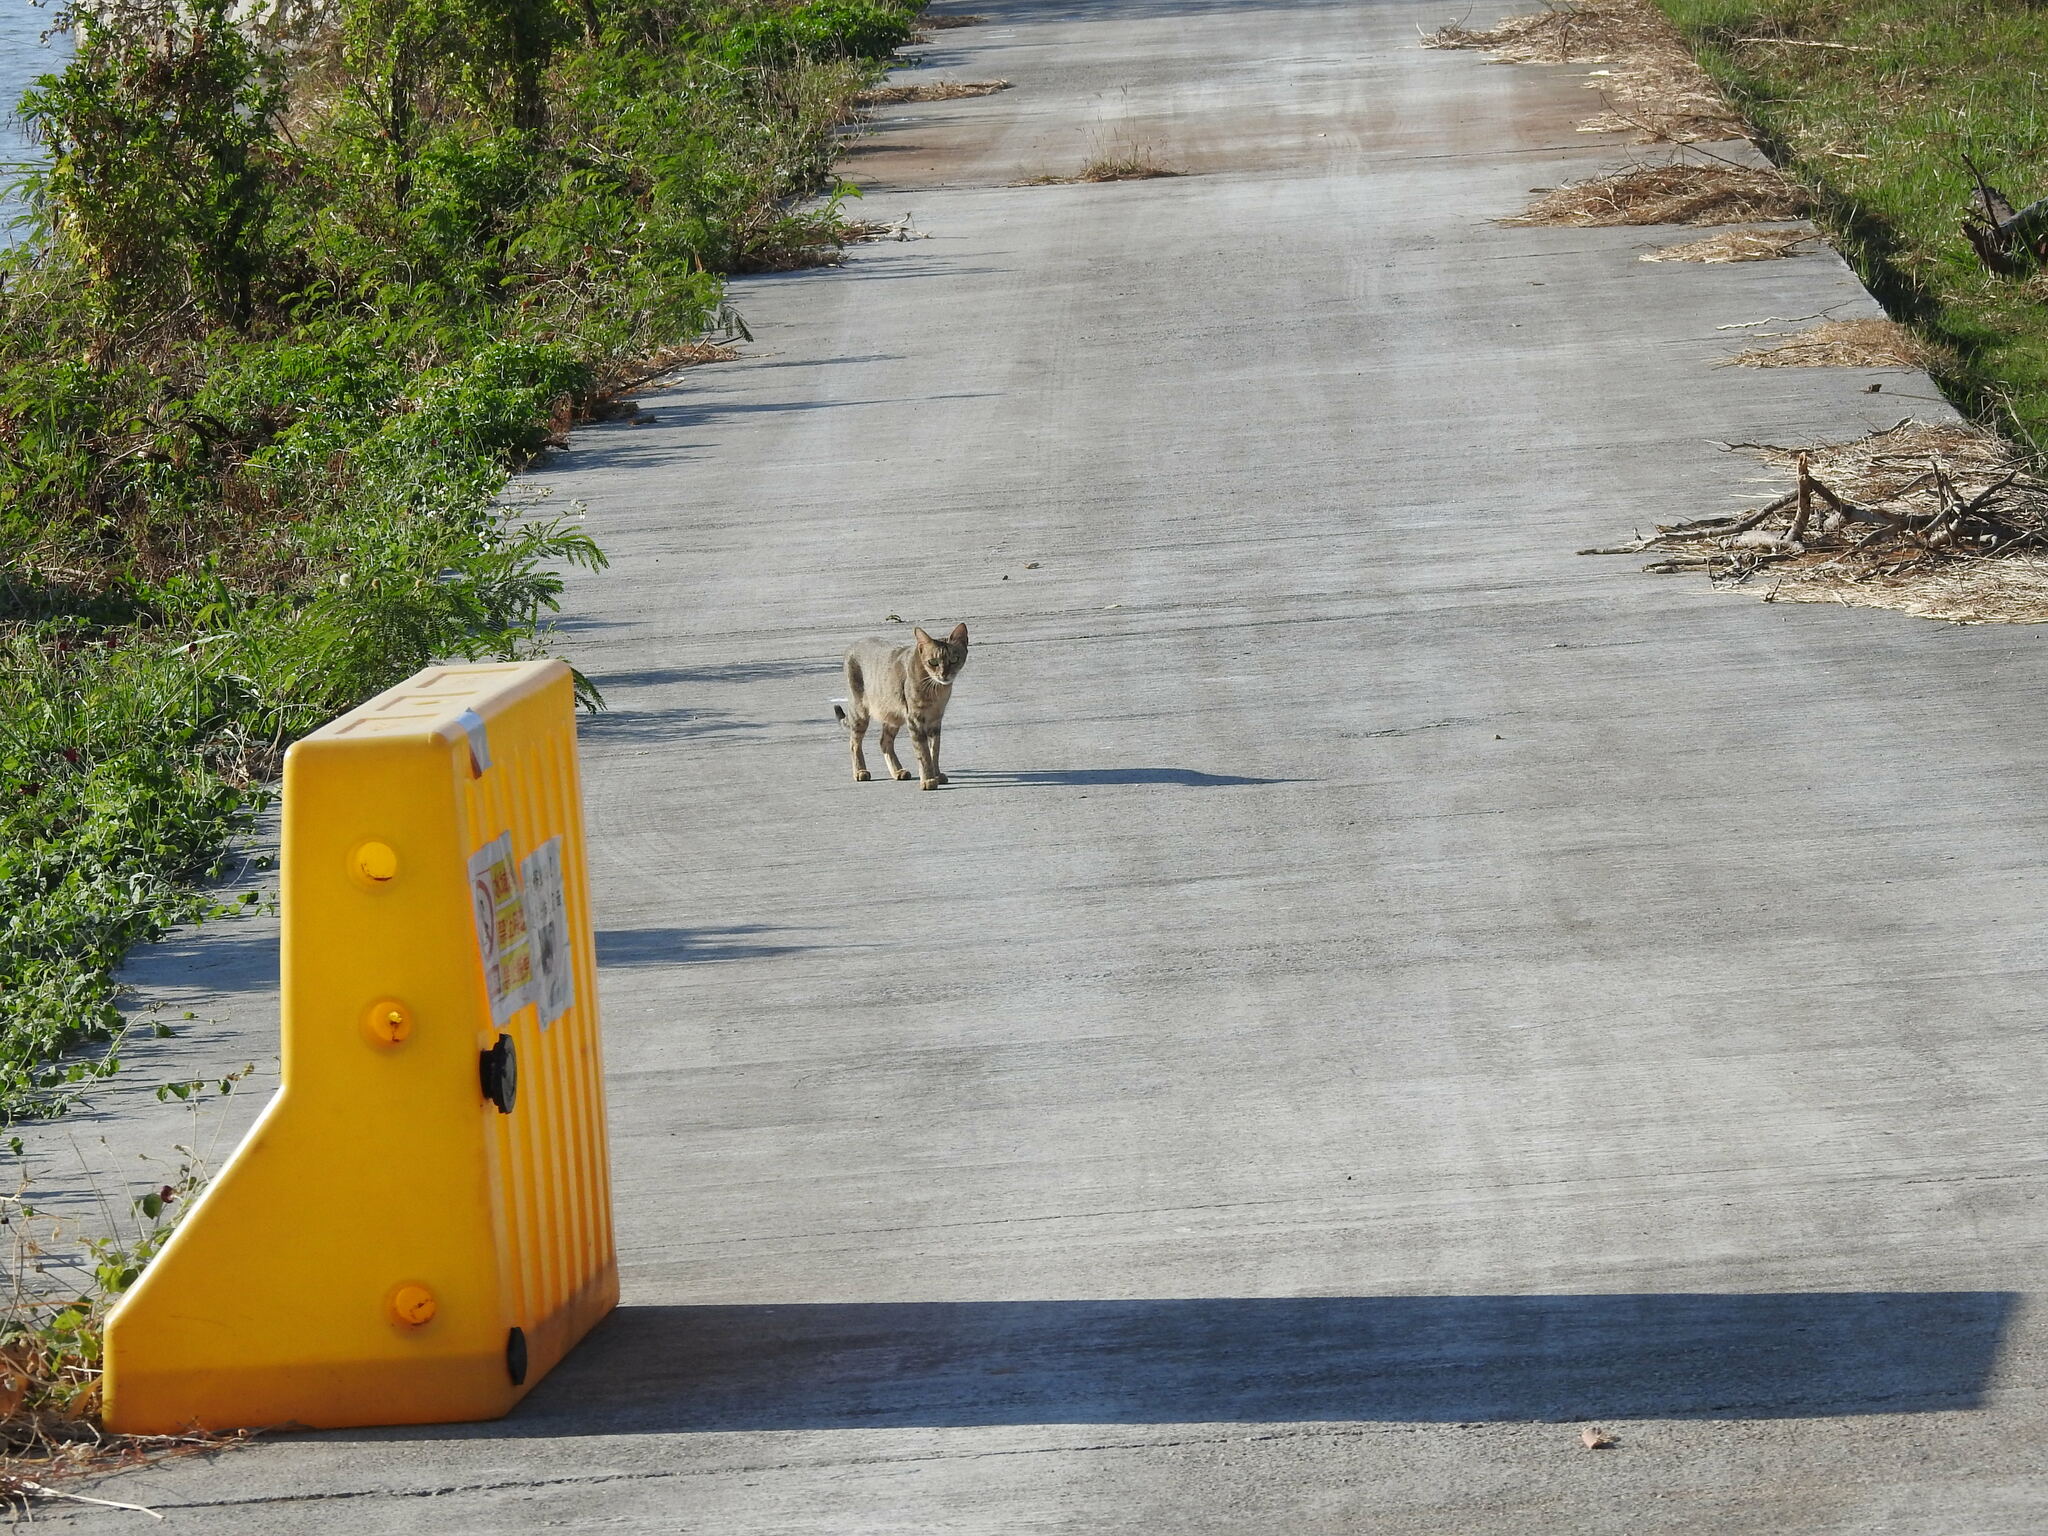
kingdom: Animalia
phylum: Chordata
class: Mammalia
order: Carnivora
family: Felidae
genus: Felis
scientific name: Felis catus
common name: Domestic cat
